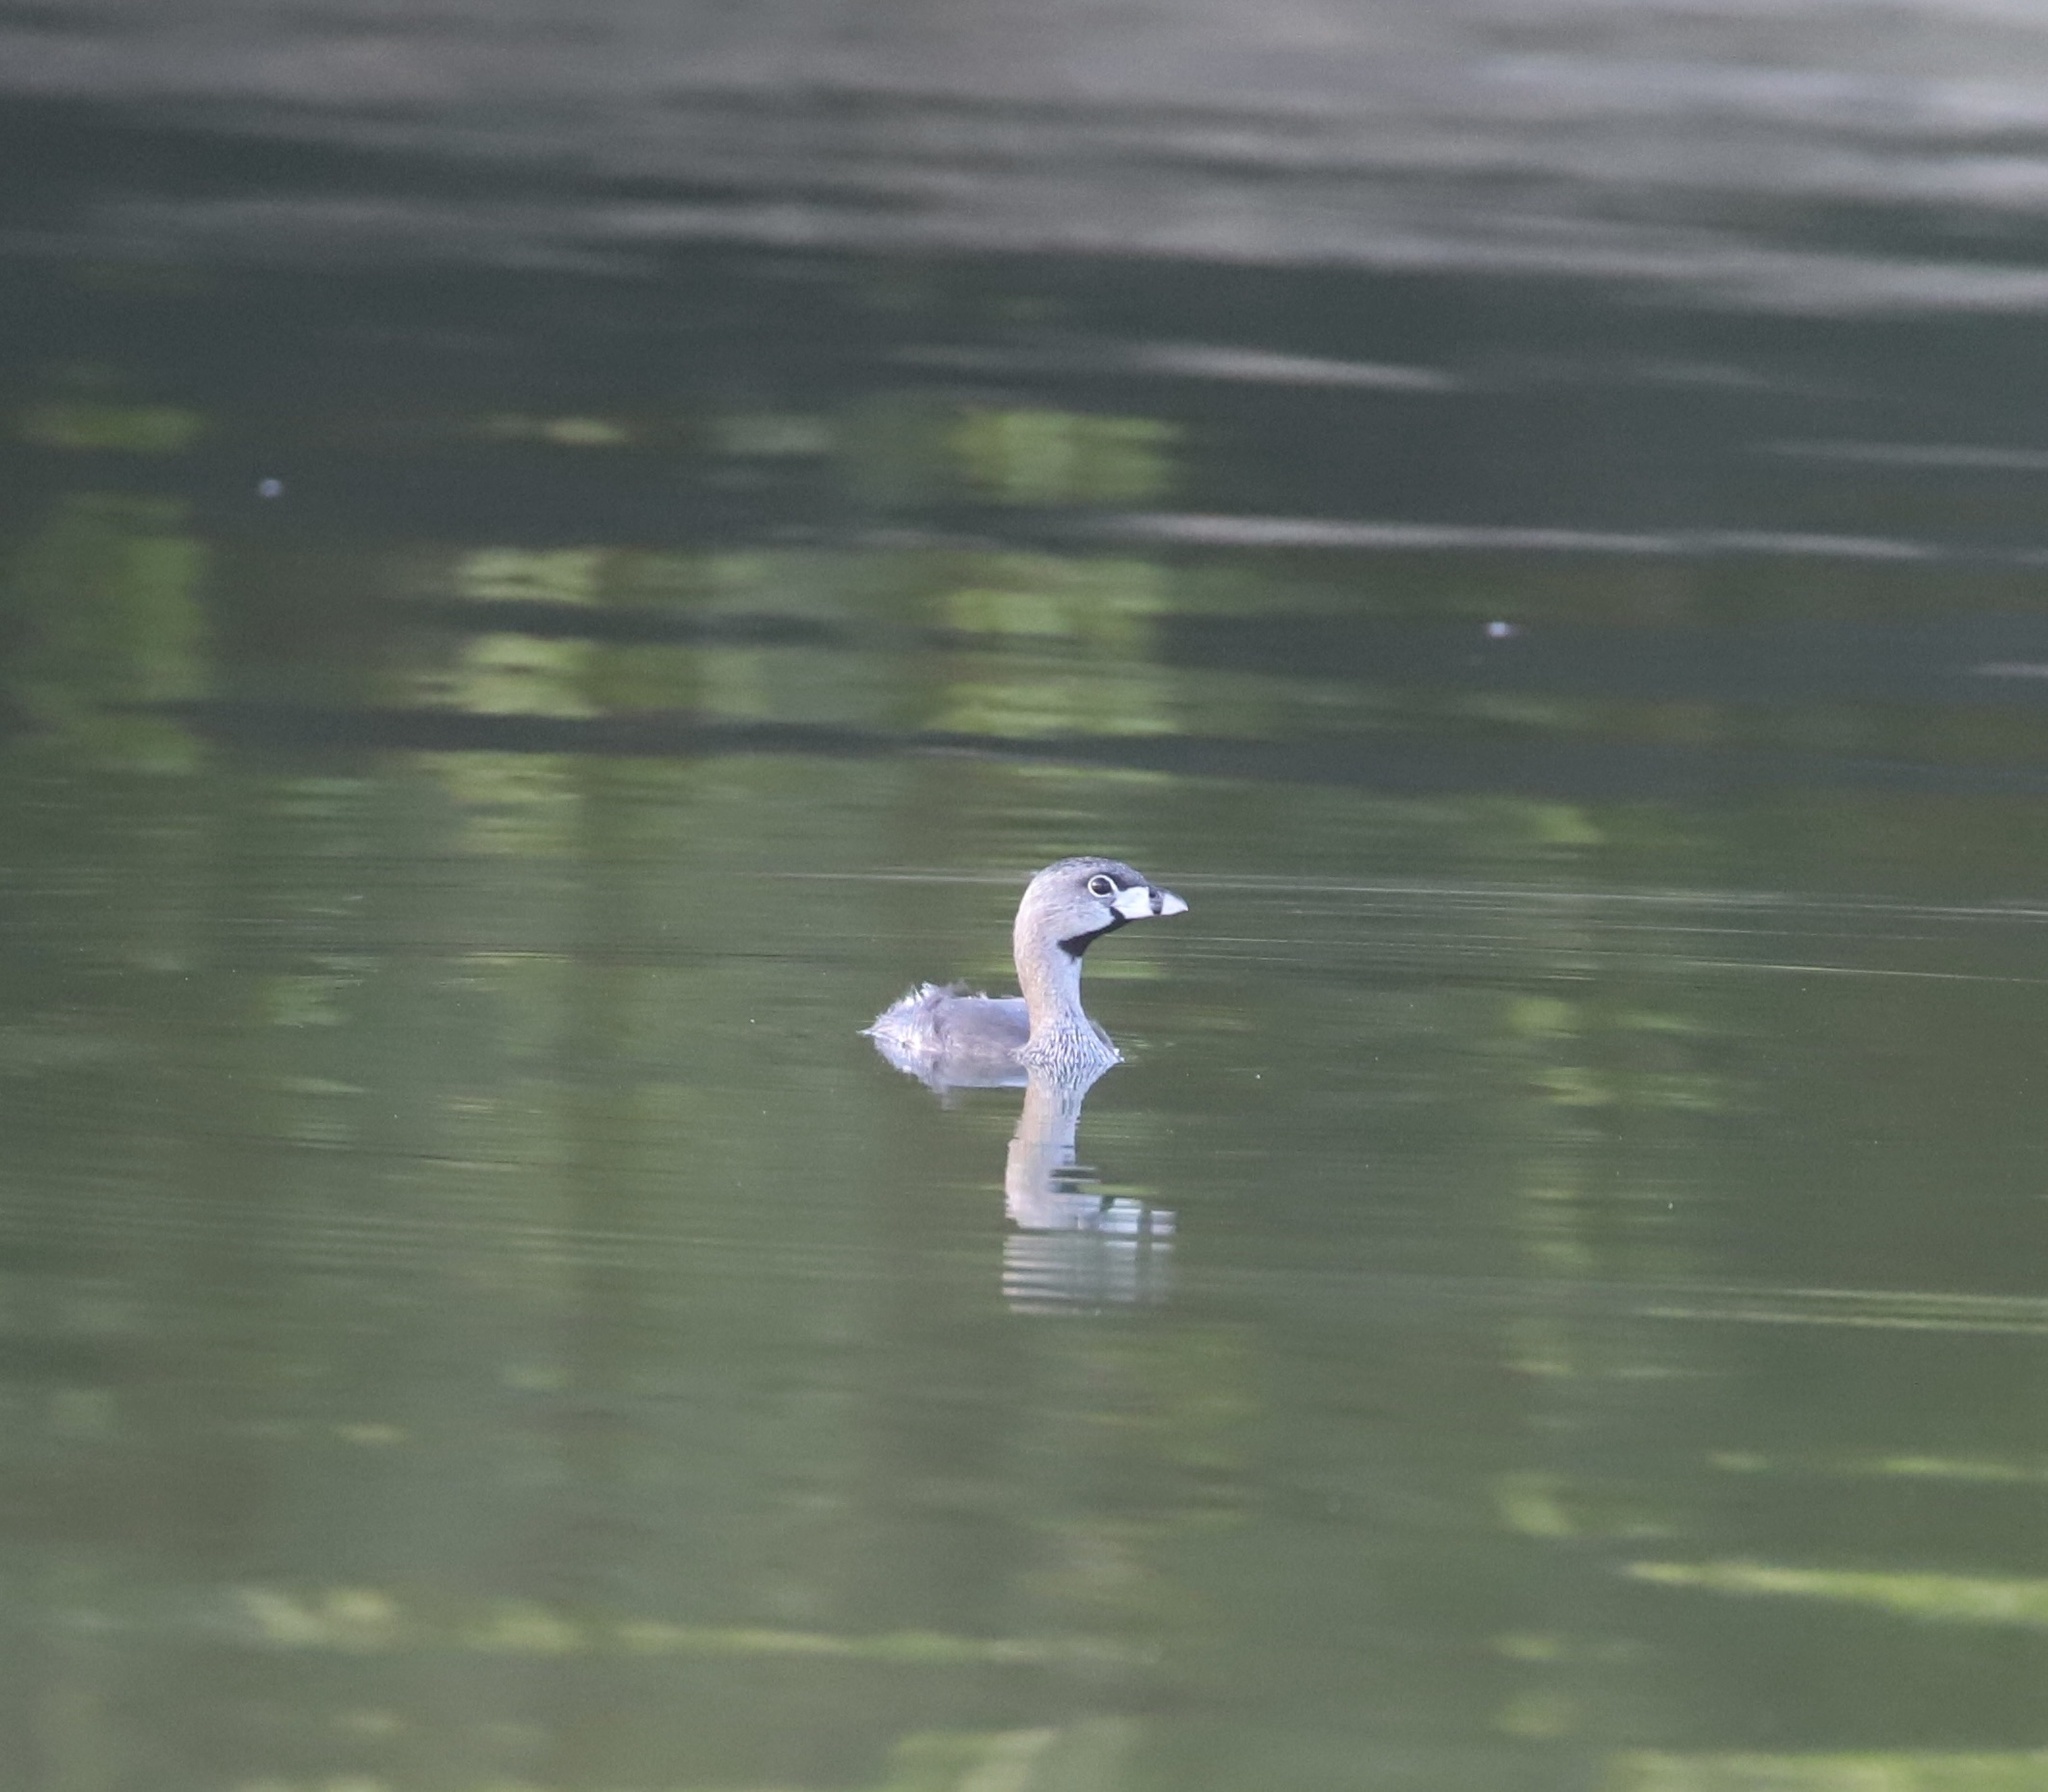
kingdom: Animalia
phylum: Chordata
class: Aves
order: Podicipediformes
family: Podicipedidae
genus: Podilymbus
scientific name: Podilymbus podiceps
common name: Pied-billed grebe
